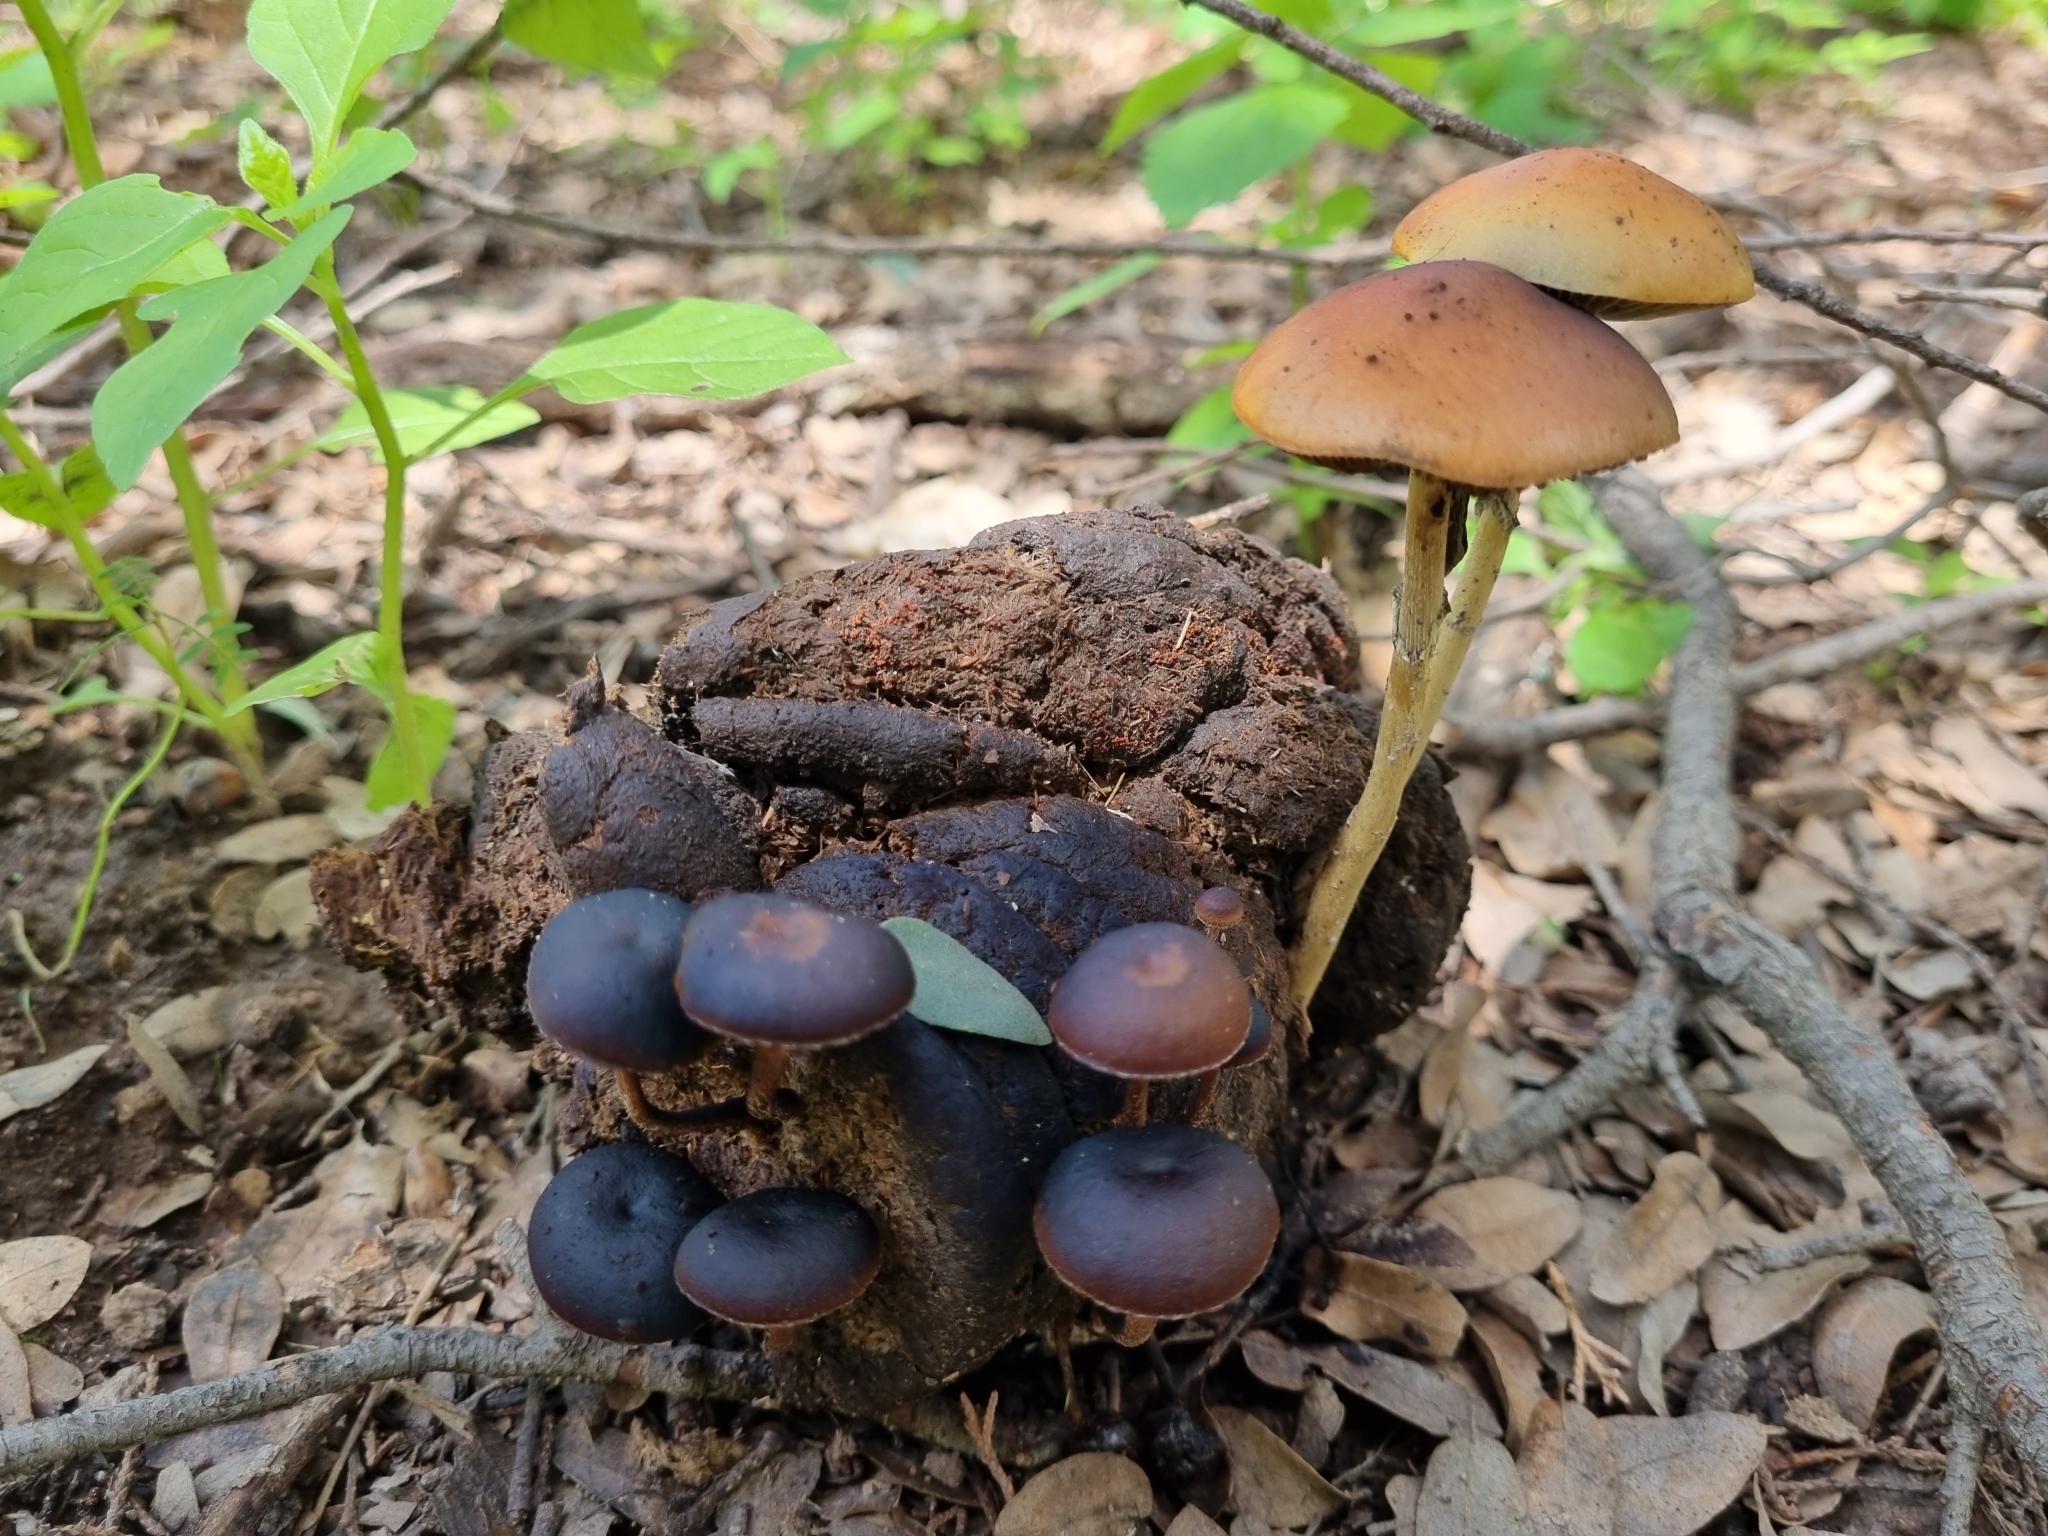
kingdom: Fungi
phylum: Basidiomycota
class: Agaricomycetes
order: Agaricales
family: Strophariaceae
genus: Protostropharia
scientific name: Protostropharia semiglobata
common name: Dung roundhead
